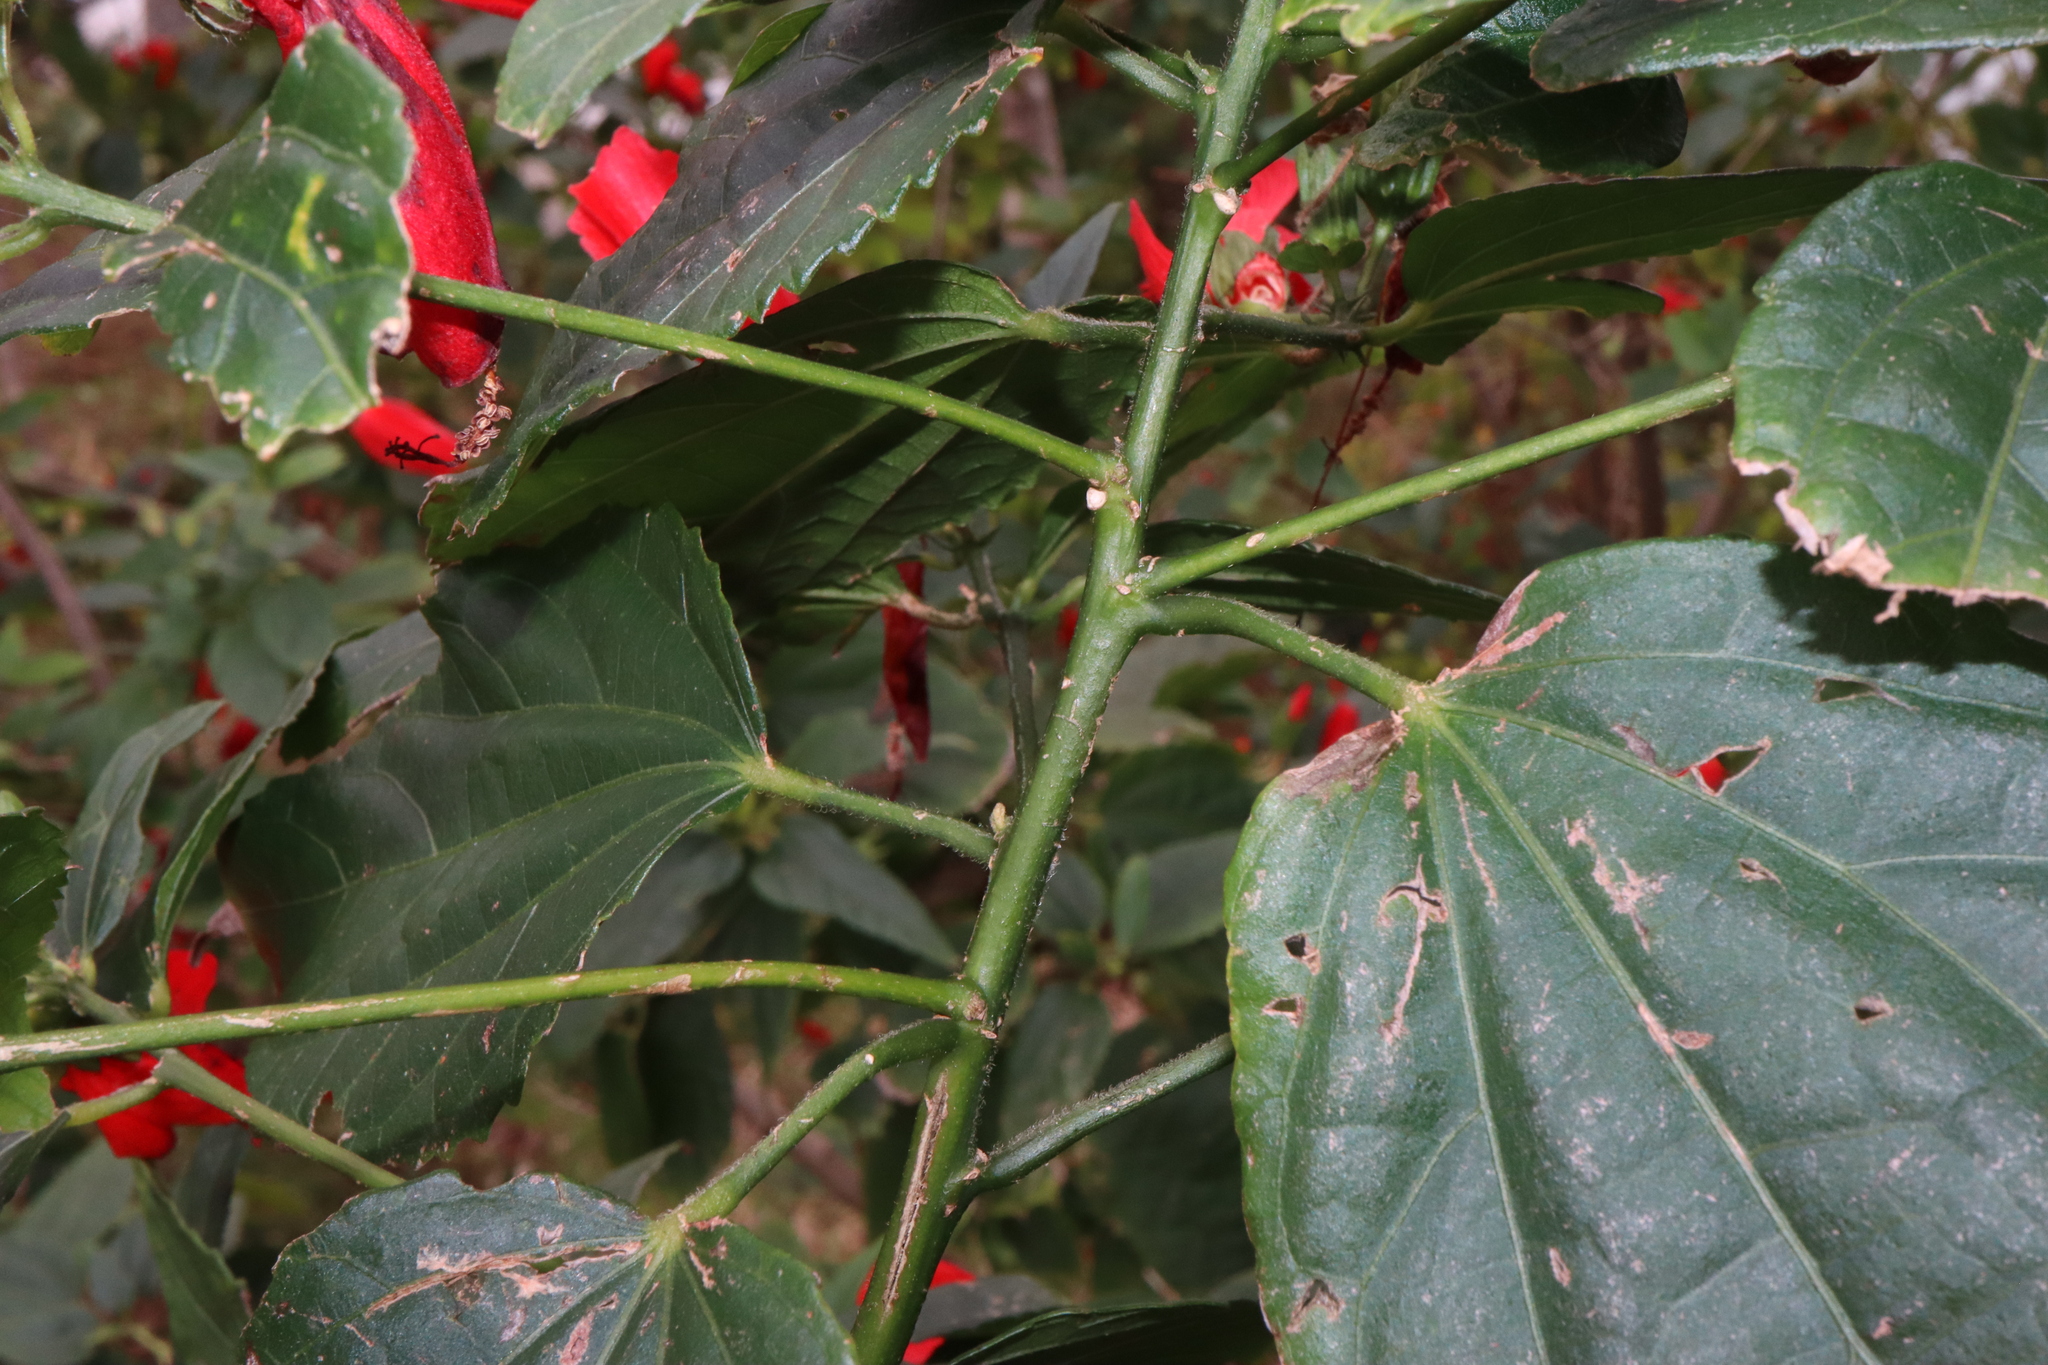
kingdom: Plantae
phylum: Tracheophyta
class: Magnoliopsida
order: Malvales
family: Malvaceae
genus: Malvaviscus
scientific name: Malvaviscus penduliflorus
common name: Mazapan
